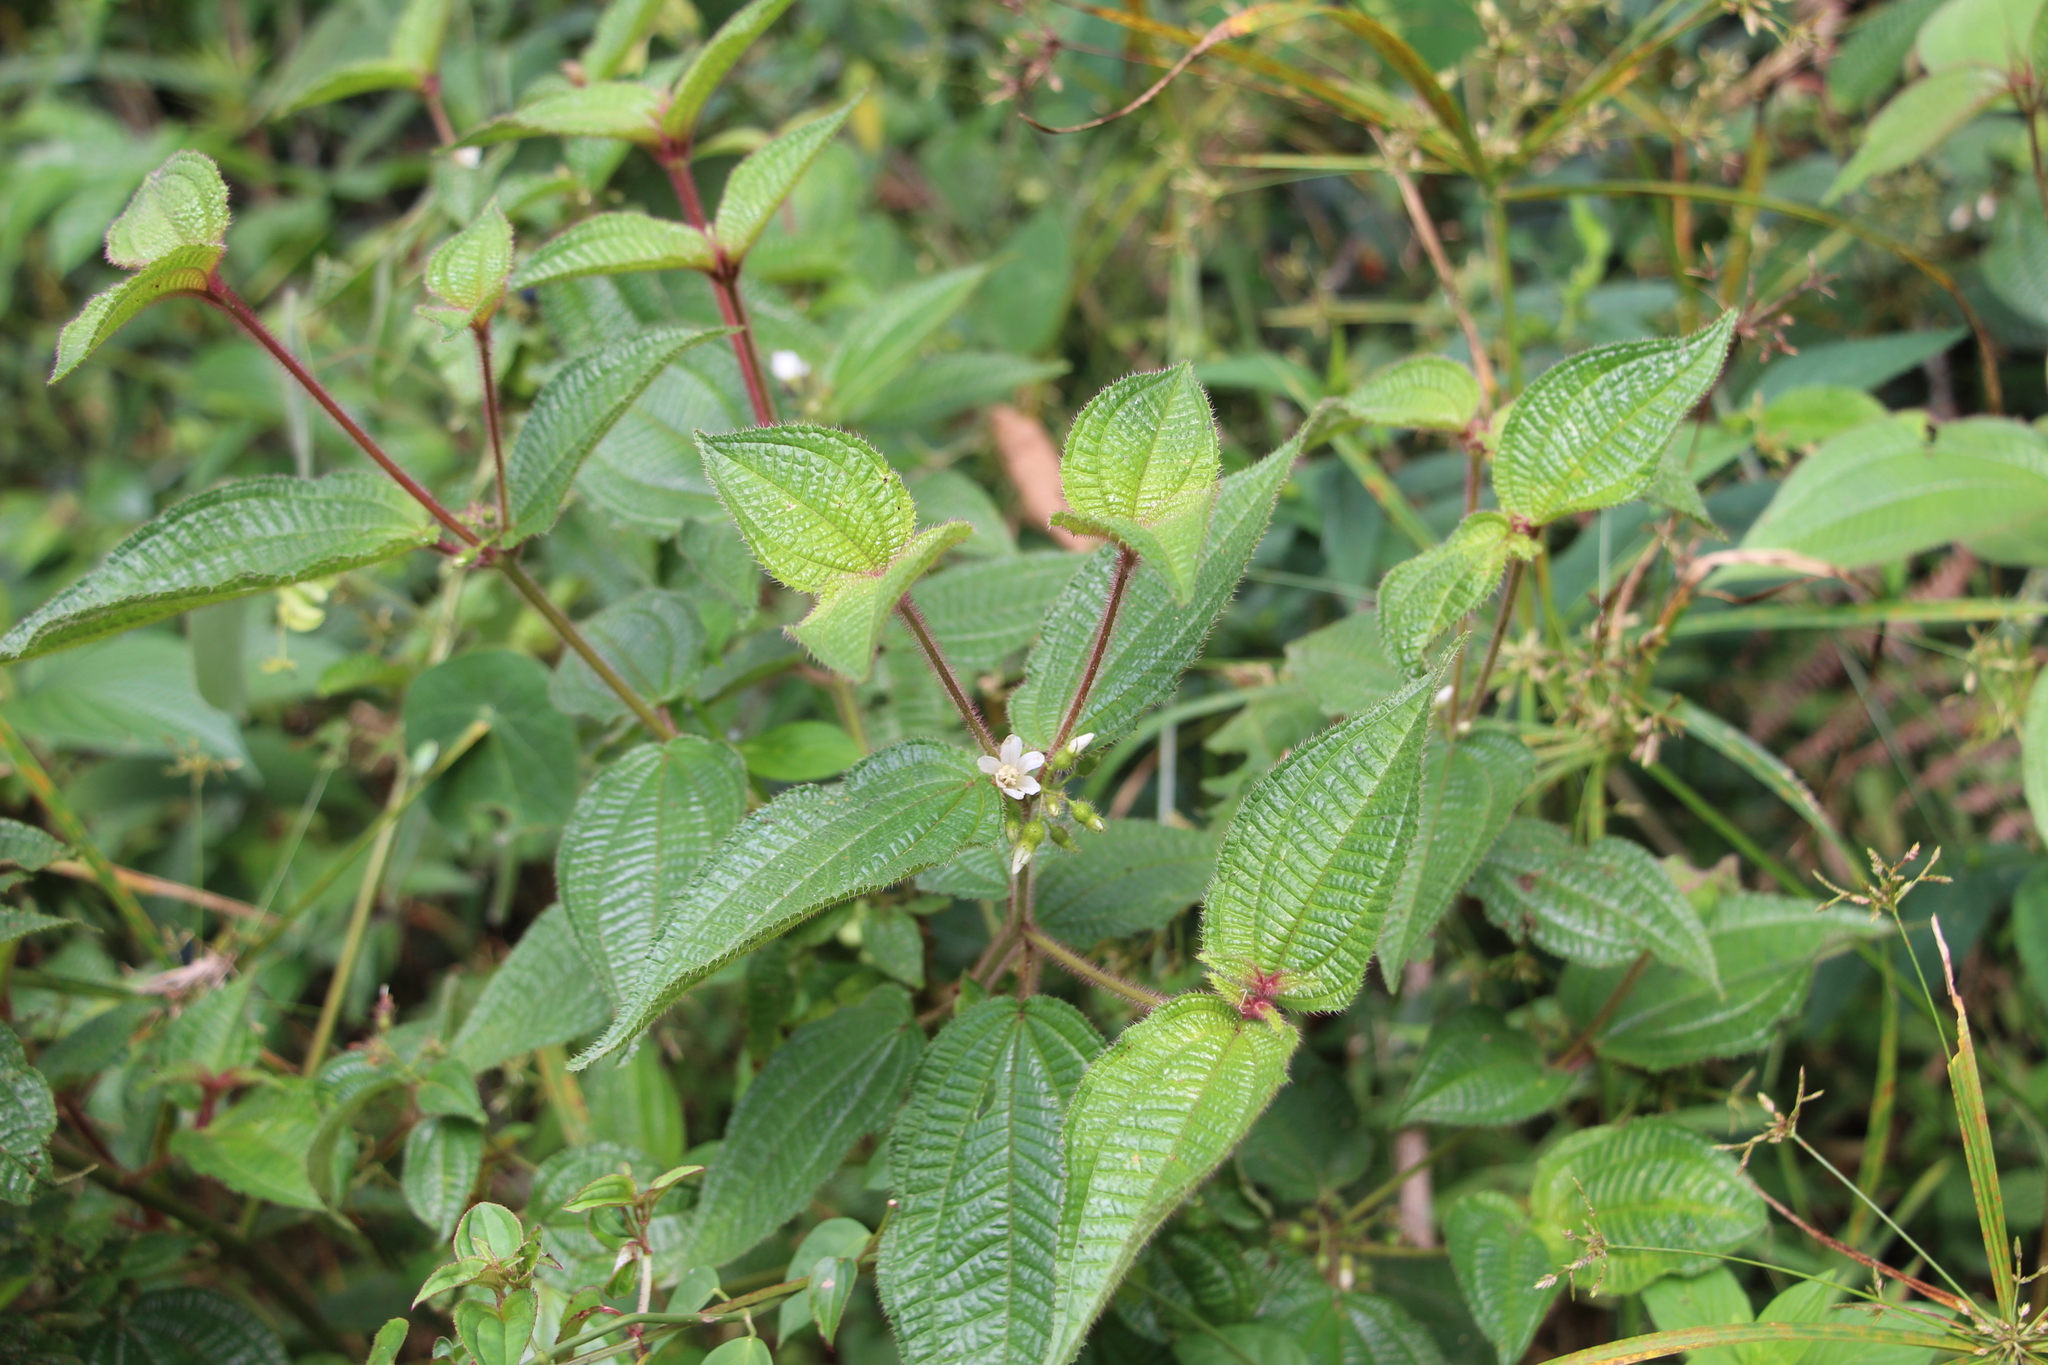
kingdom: Plantae
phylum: Tracheophyta
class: Magnoliopsida
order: Myrtales
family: Melastomataceae
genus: Miconia
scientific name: Miconia crenata
